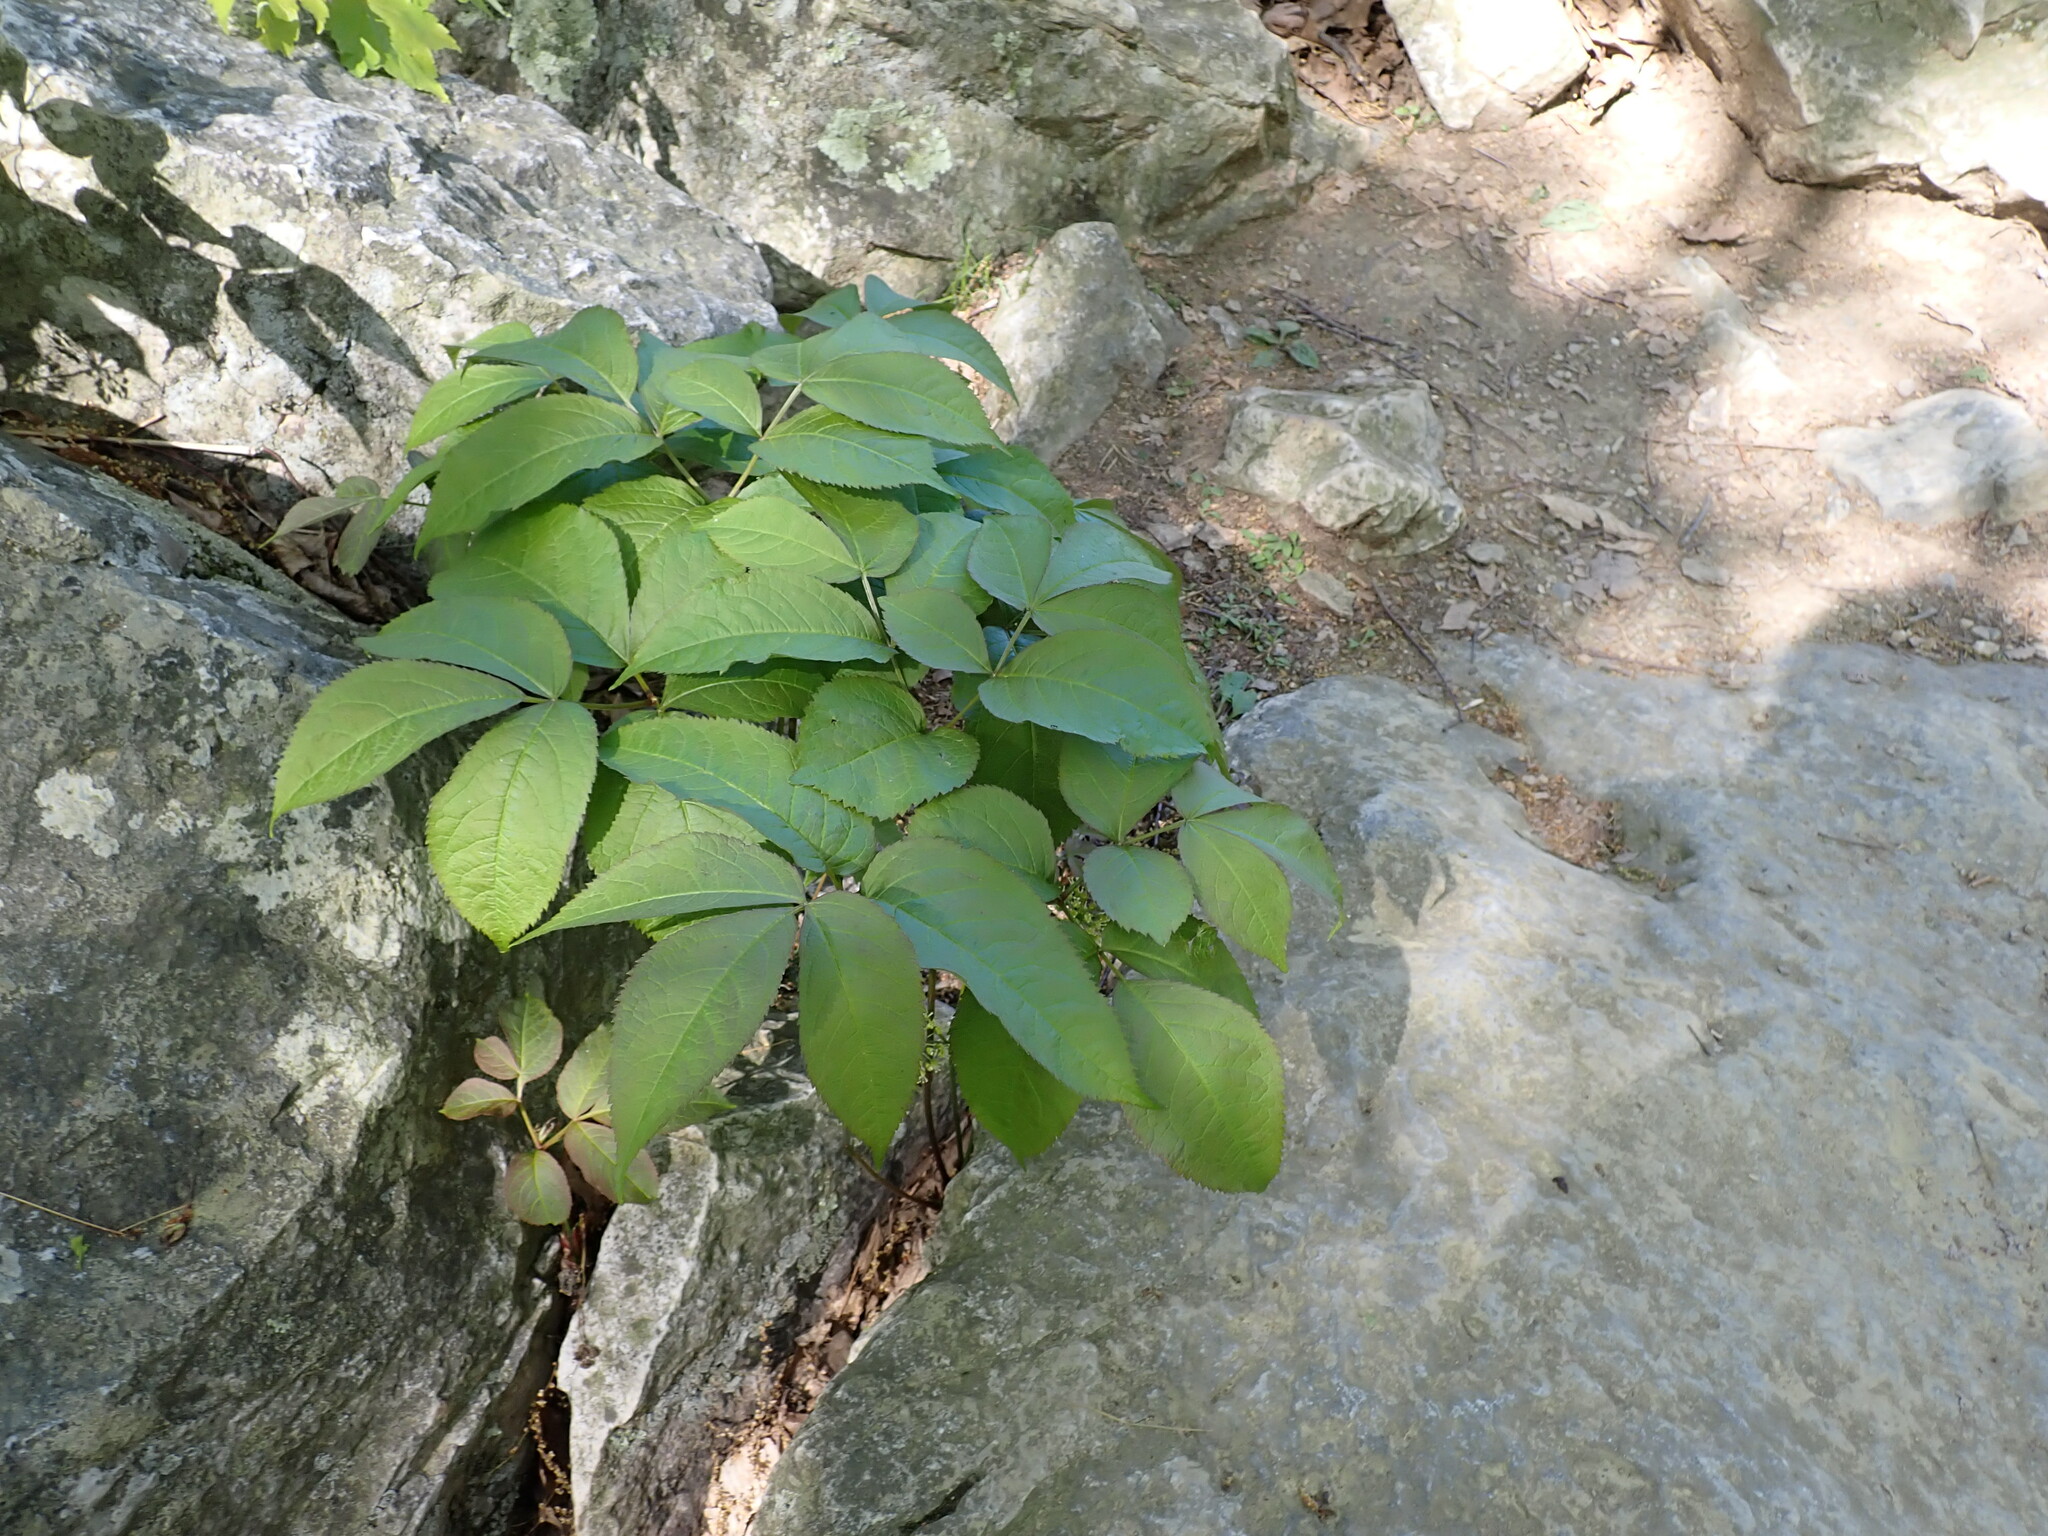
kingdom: Plantae
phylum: Tracheophyta
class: Magnoliopsida
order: Apiales
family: Araliaceae
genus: Aralia
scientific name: Aralia nudicaulis
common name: Wild sarsaparilla
